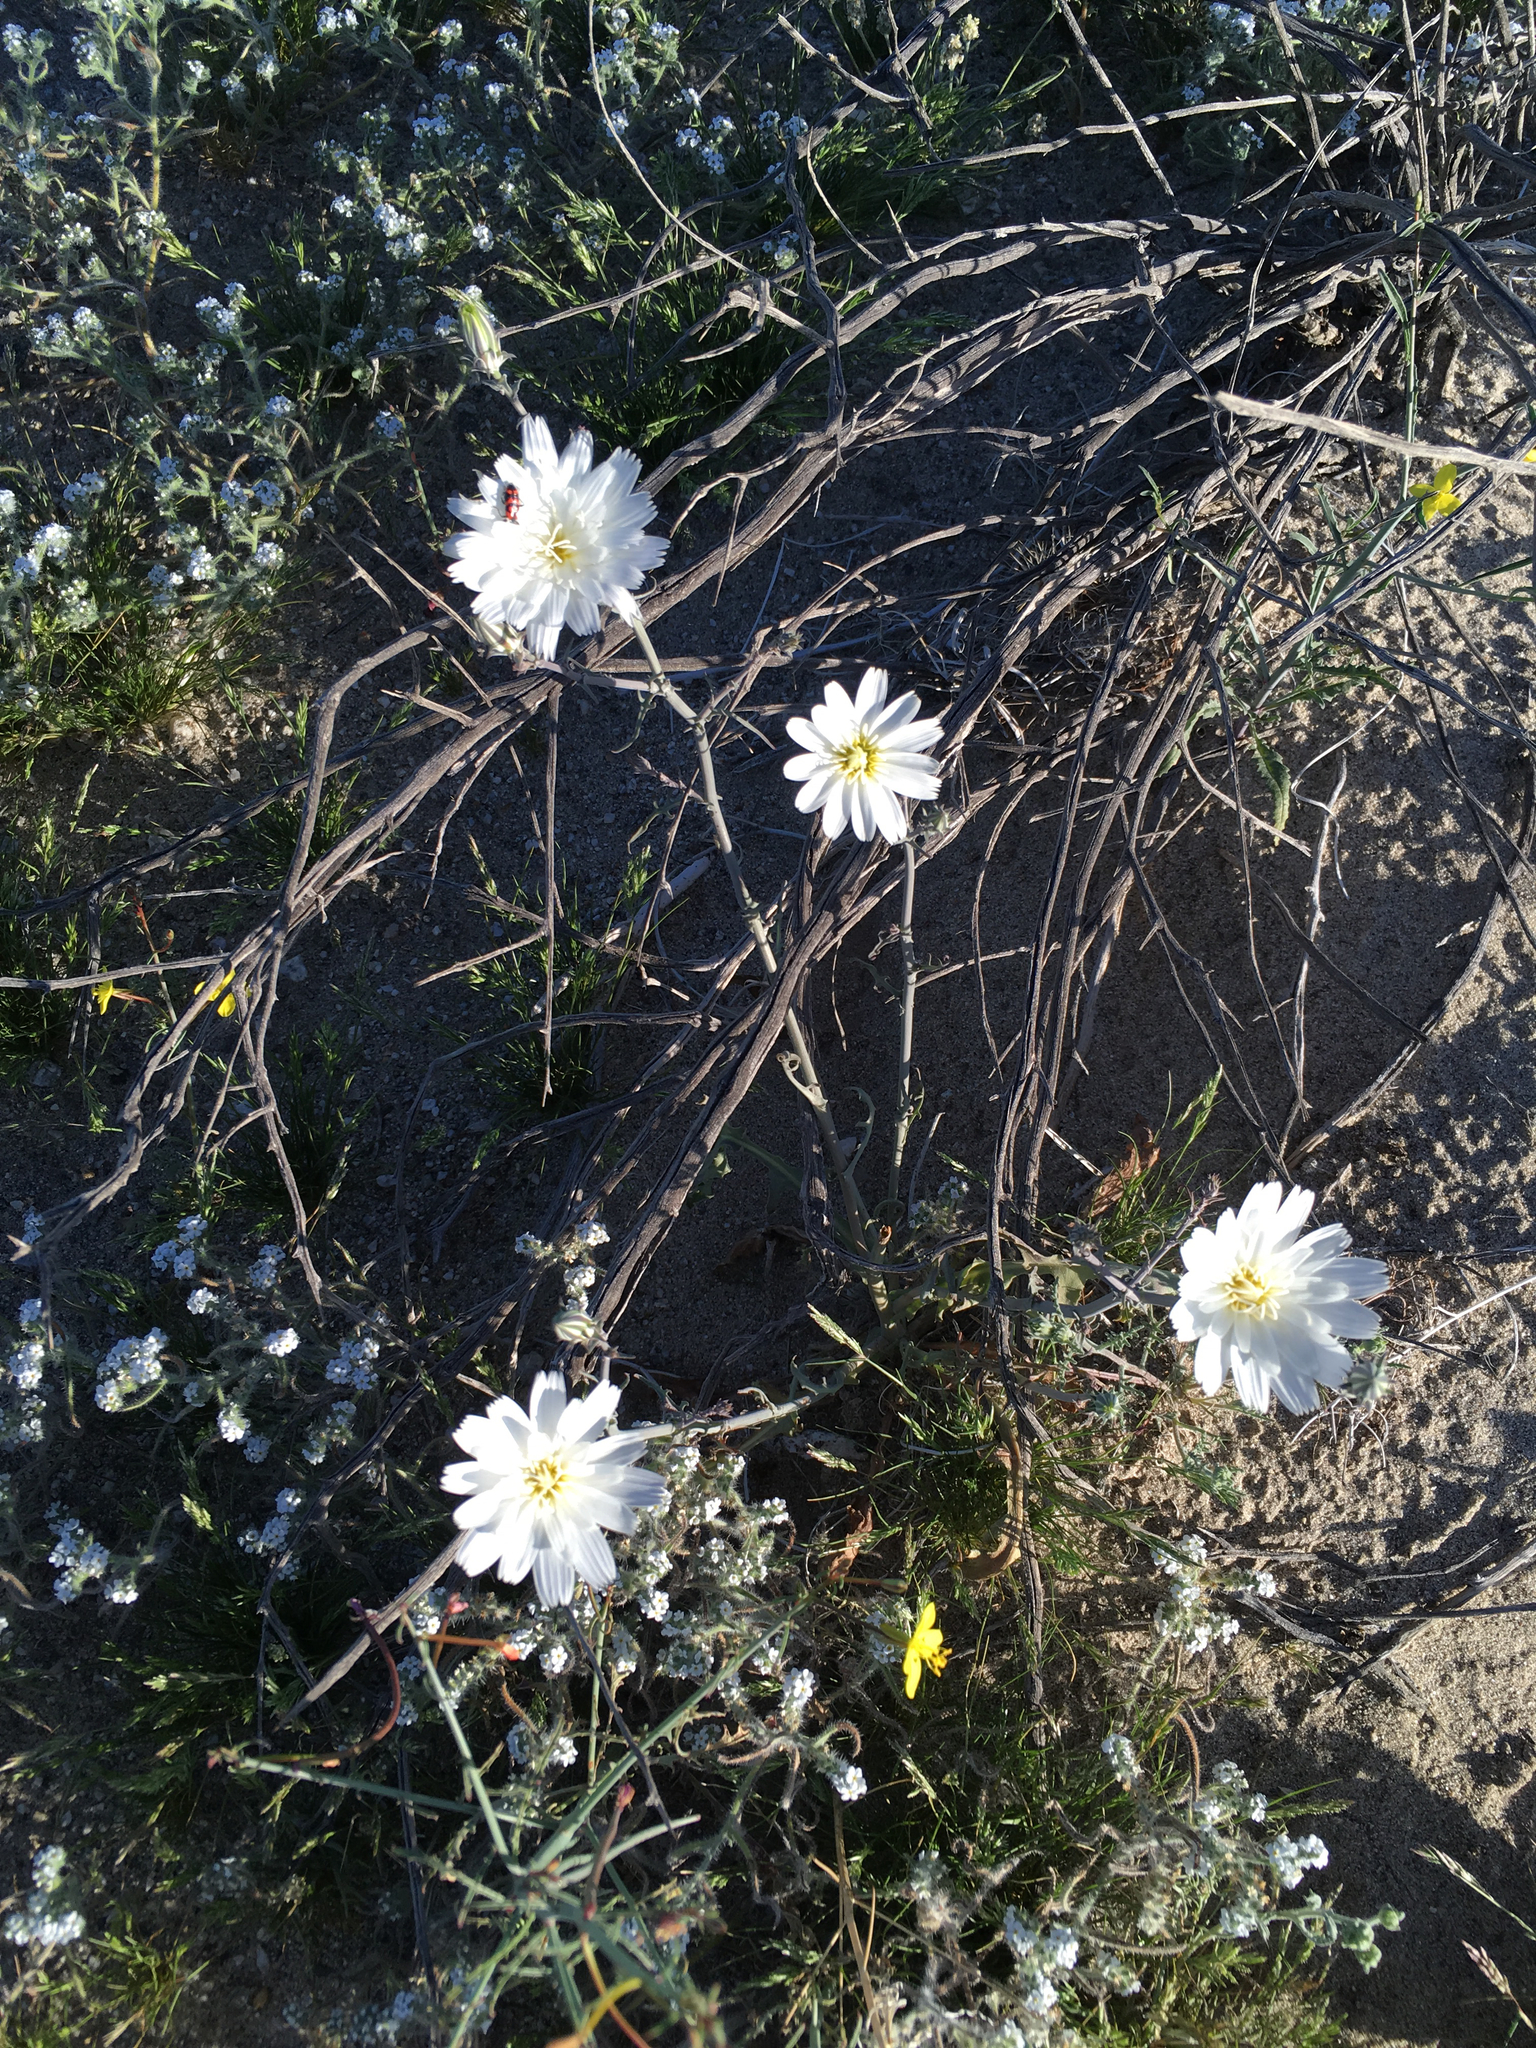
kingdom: Plantae
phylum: Tracheophyta
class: Magnoliopsida
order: Asterales
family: Asteraceae
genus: Rafinesquia
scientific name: Rafinesquia neomexicana
